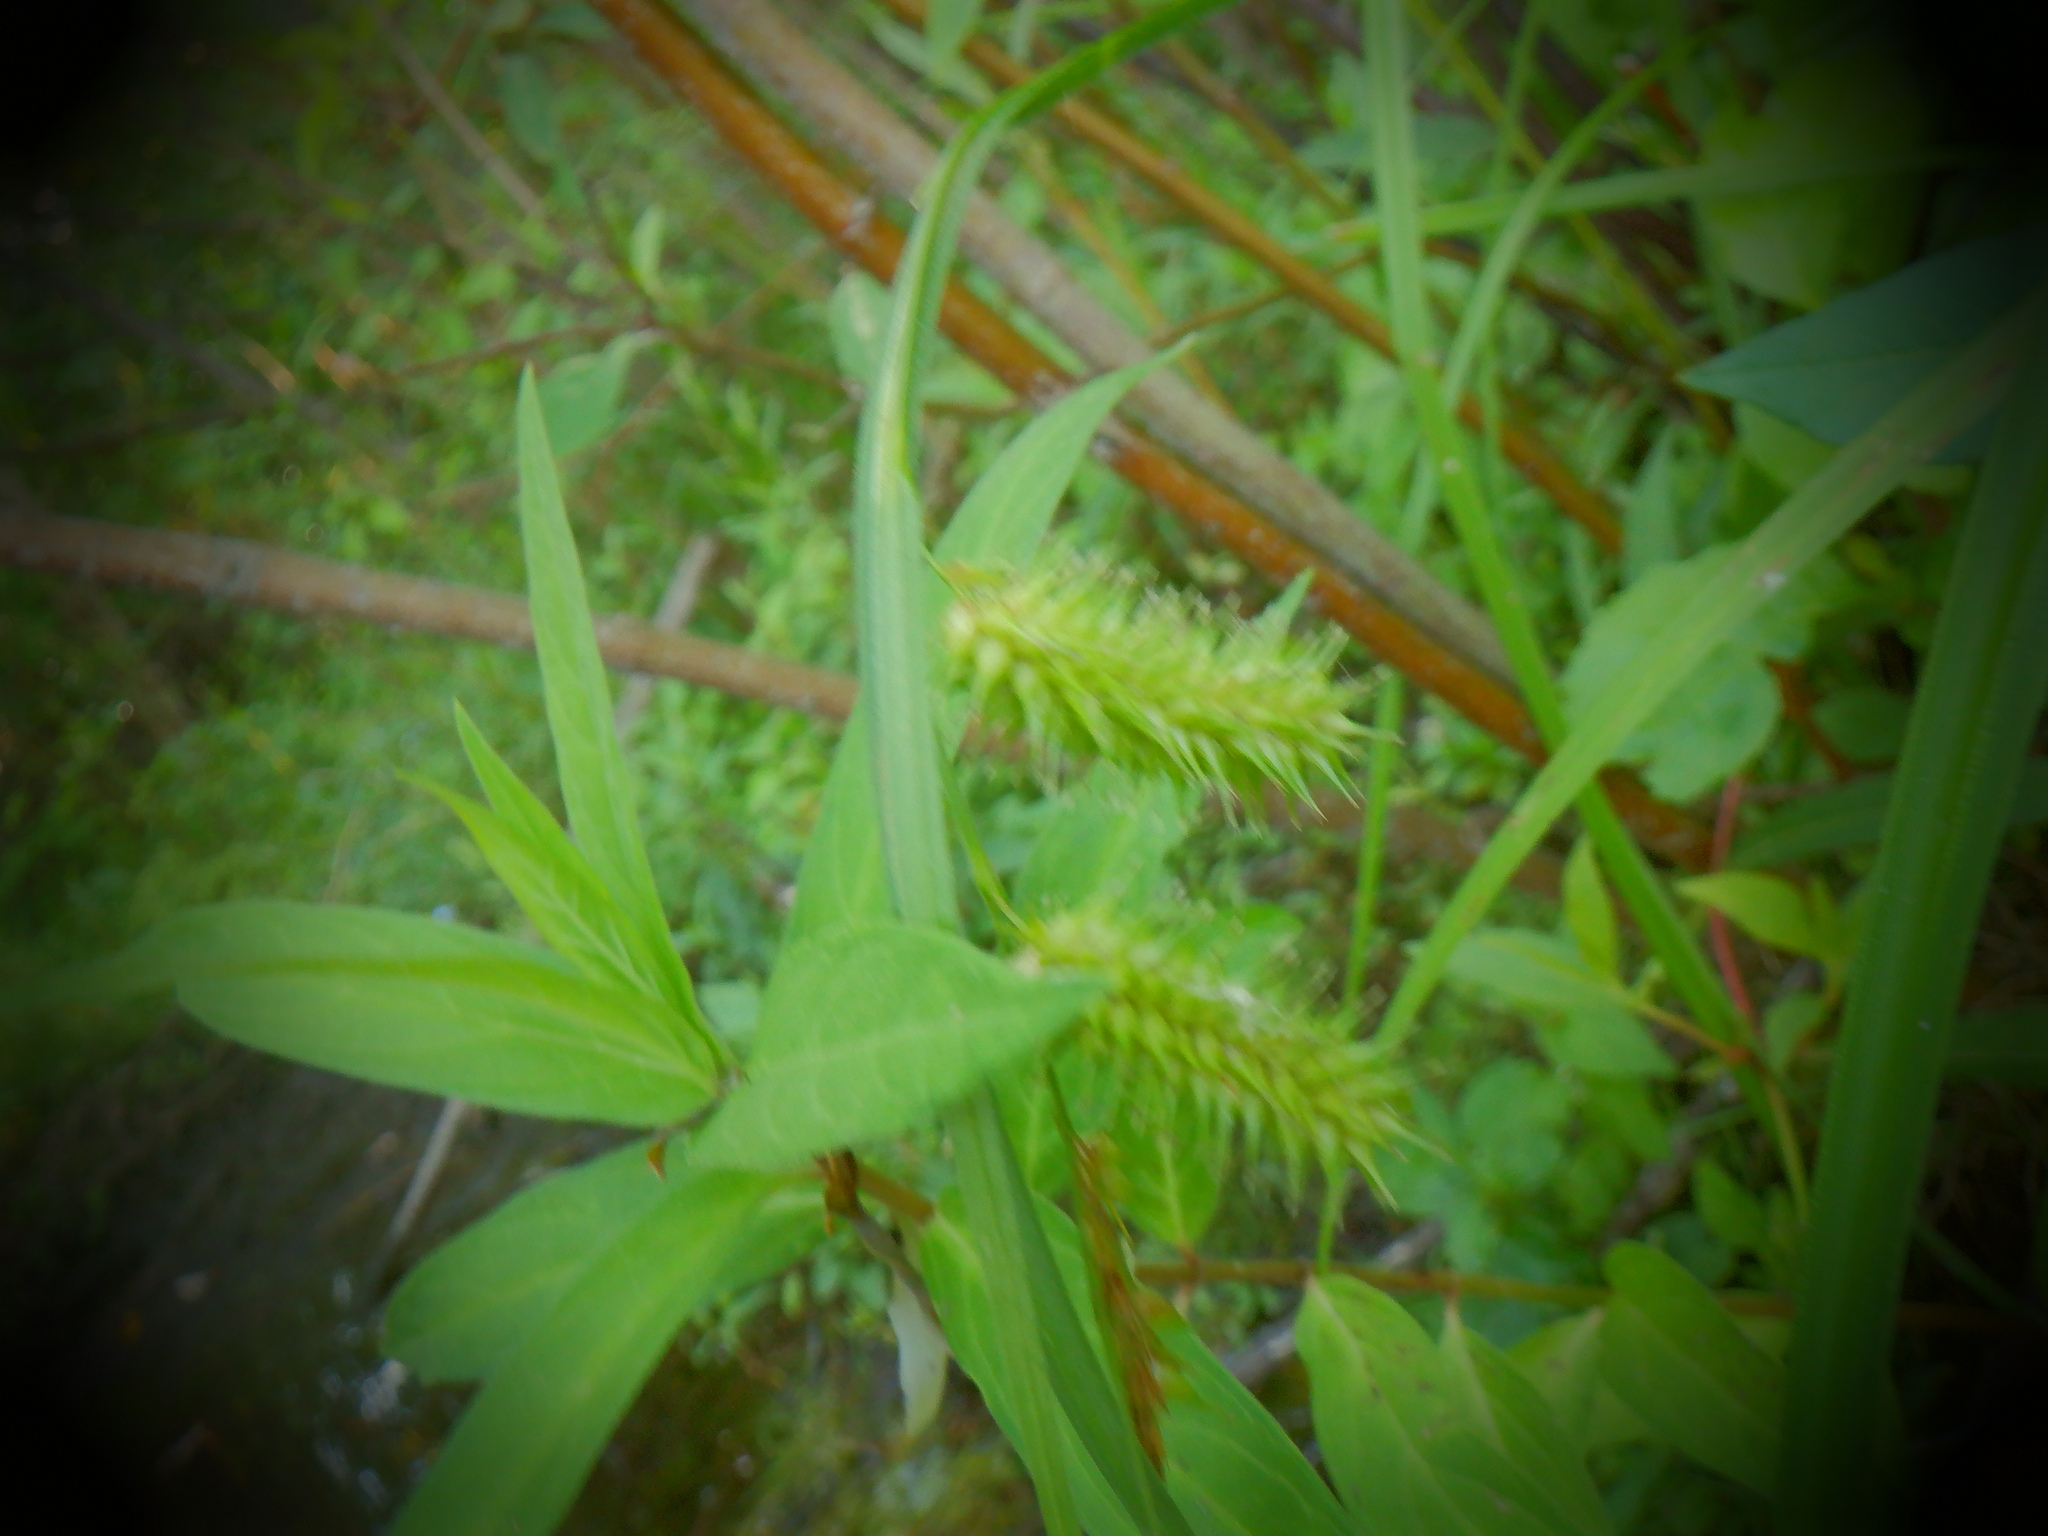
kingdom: Plantae
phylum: Tracheophyta
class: Liliopsida
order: Poales
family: Cyperaceae
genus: Carex
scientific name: Carex hystericina
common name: Bottlebrush sedge
